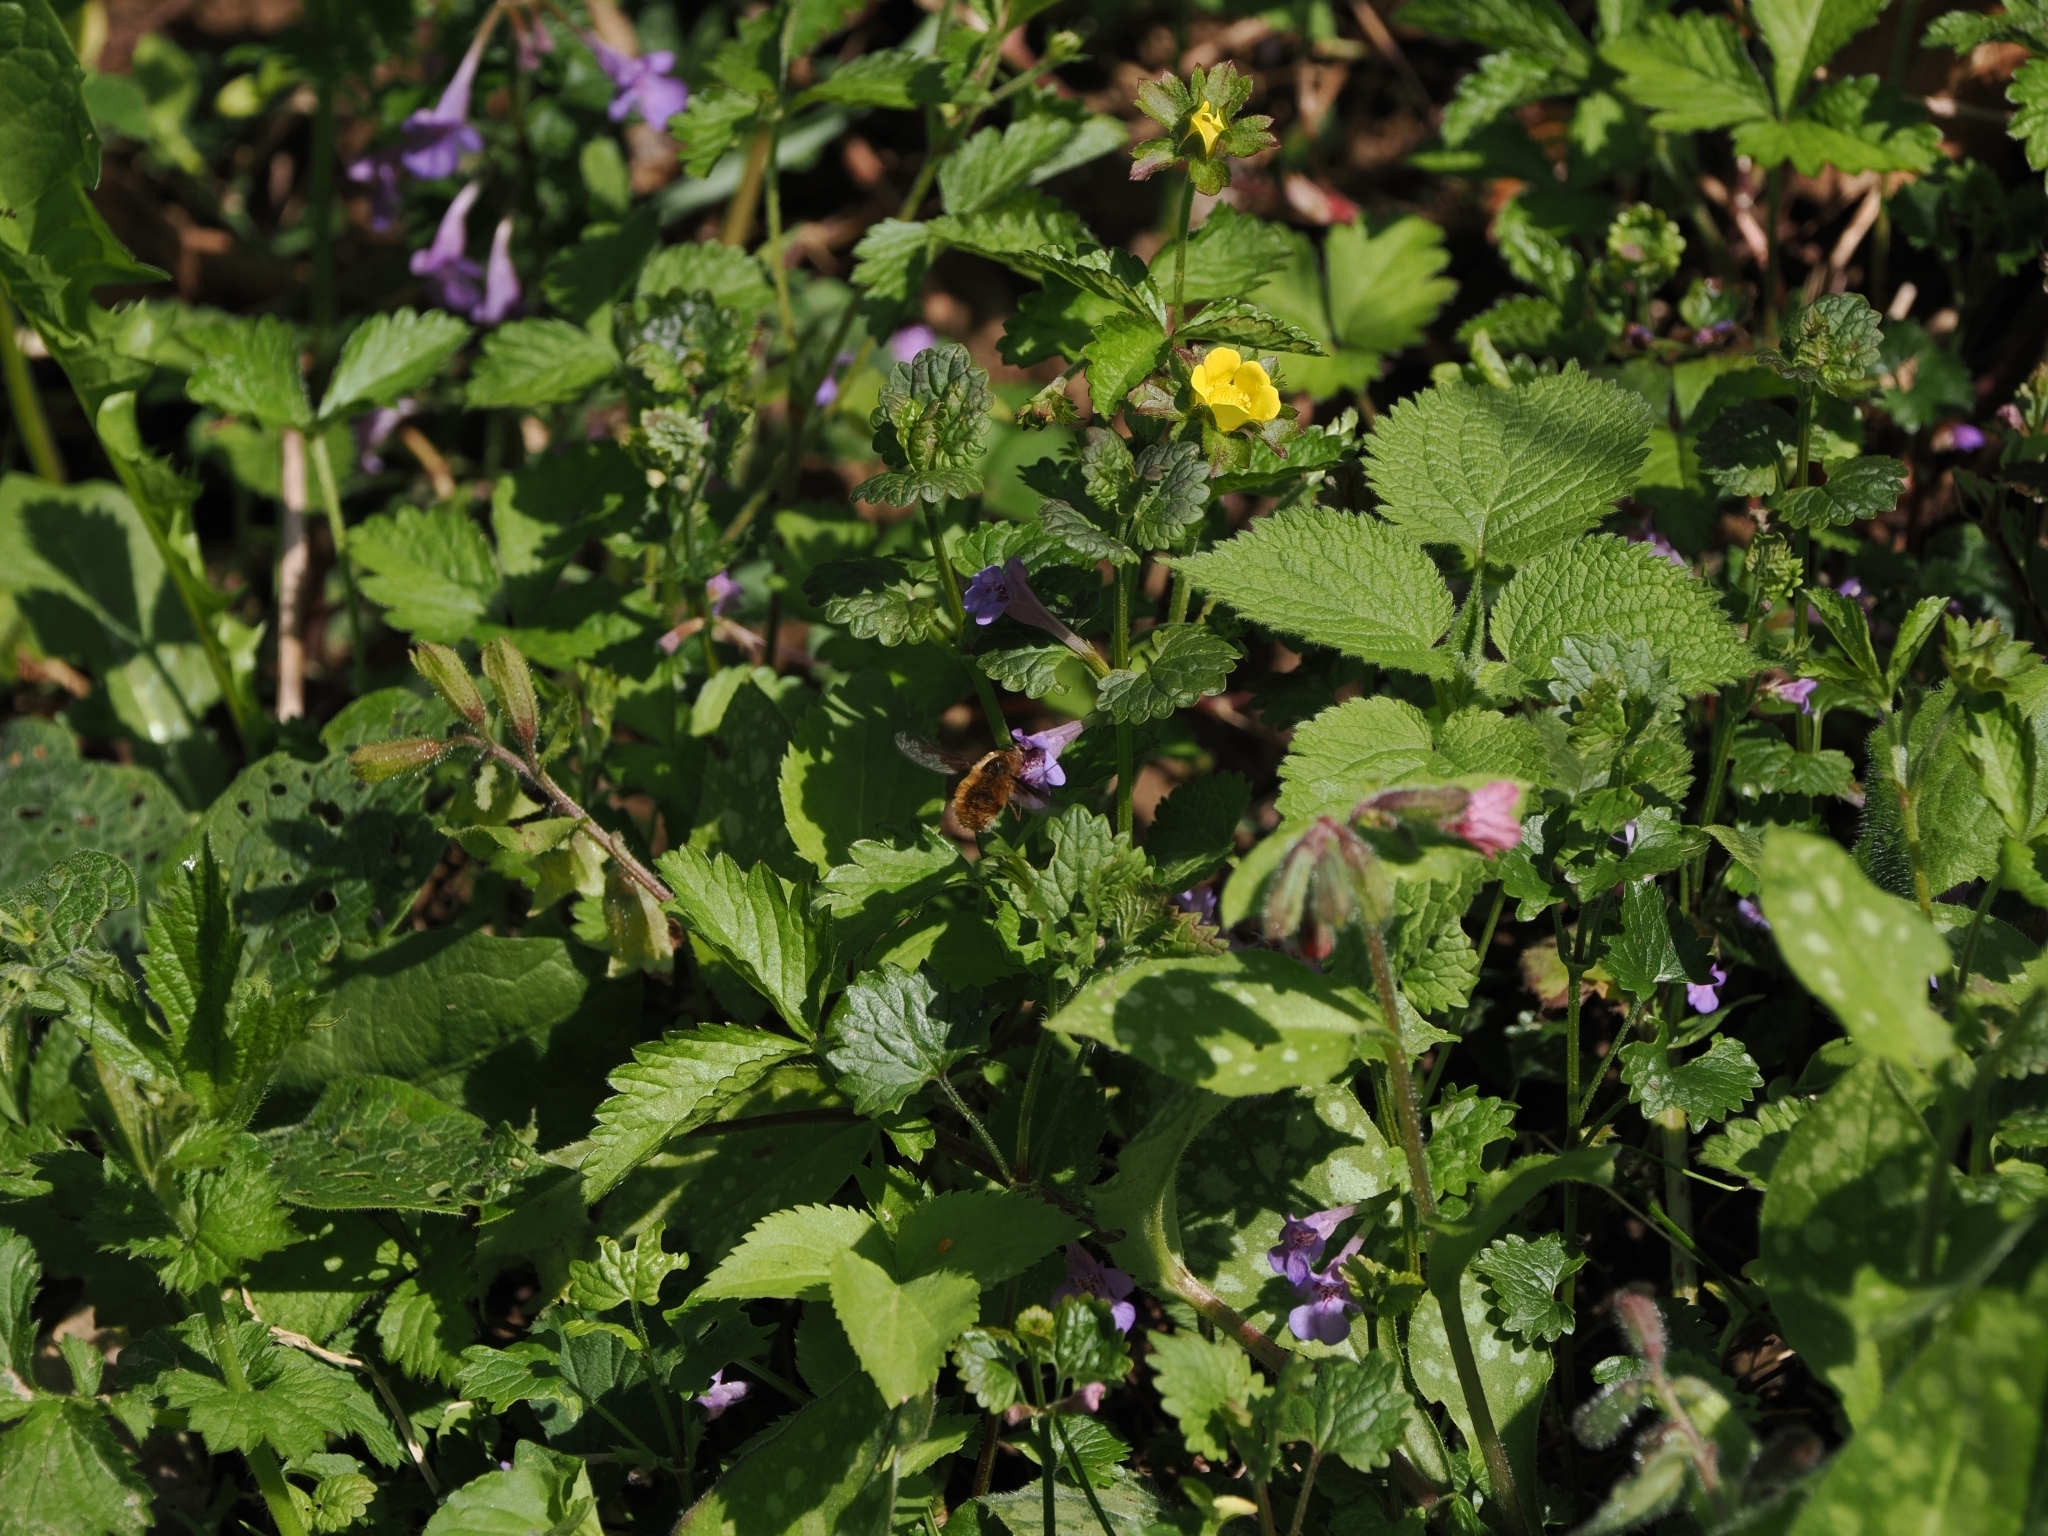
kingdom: Animalia
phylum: Arthropoda
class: Insecta
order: Diptera
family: Bombyliidae
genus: Bombylius
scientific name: Bombylius major
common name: Bee fly
